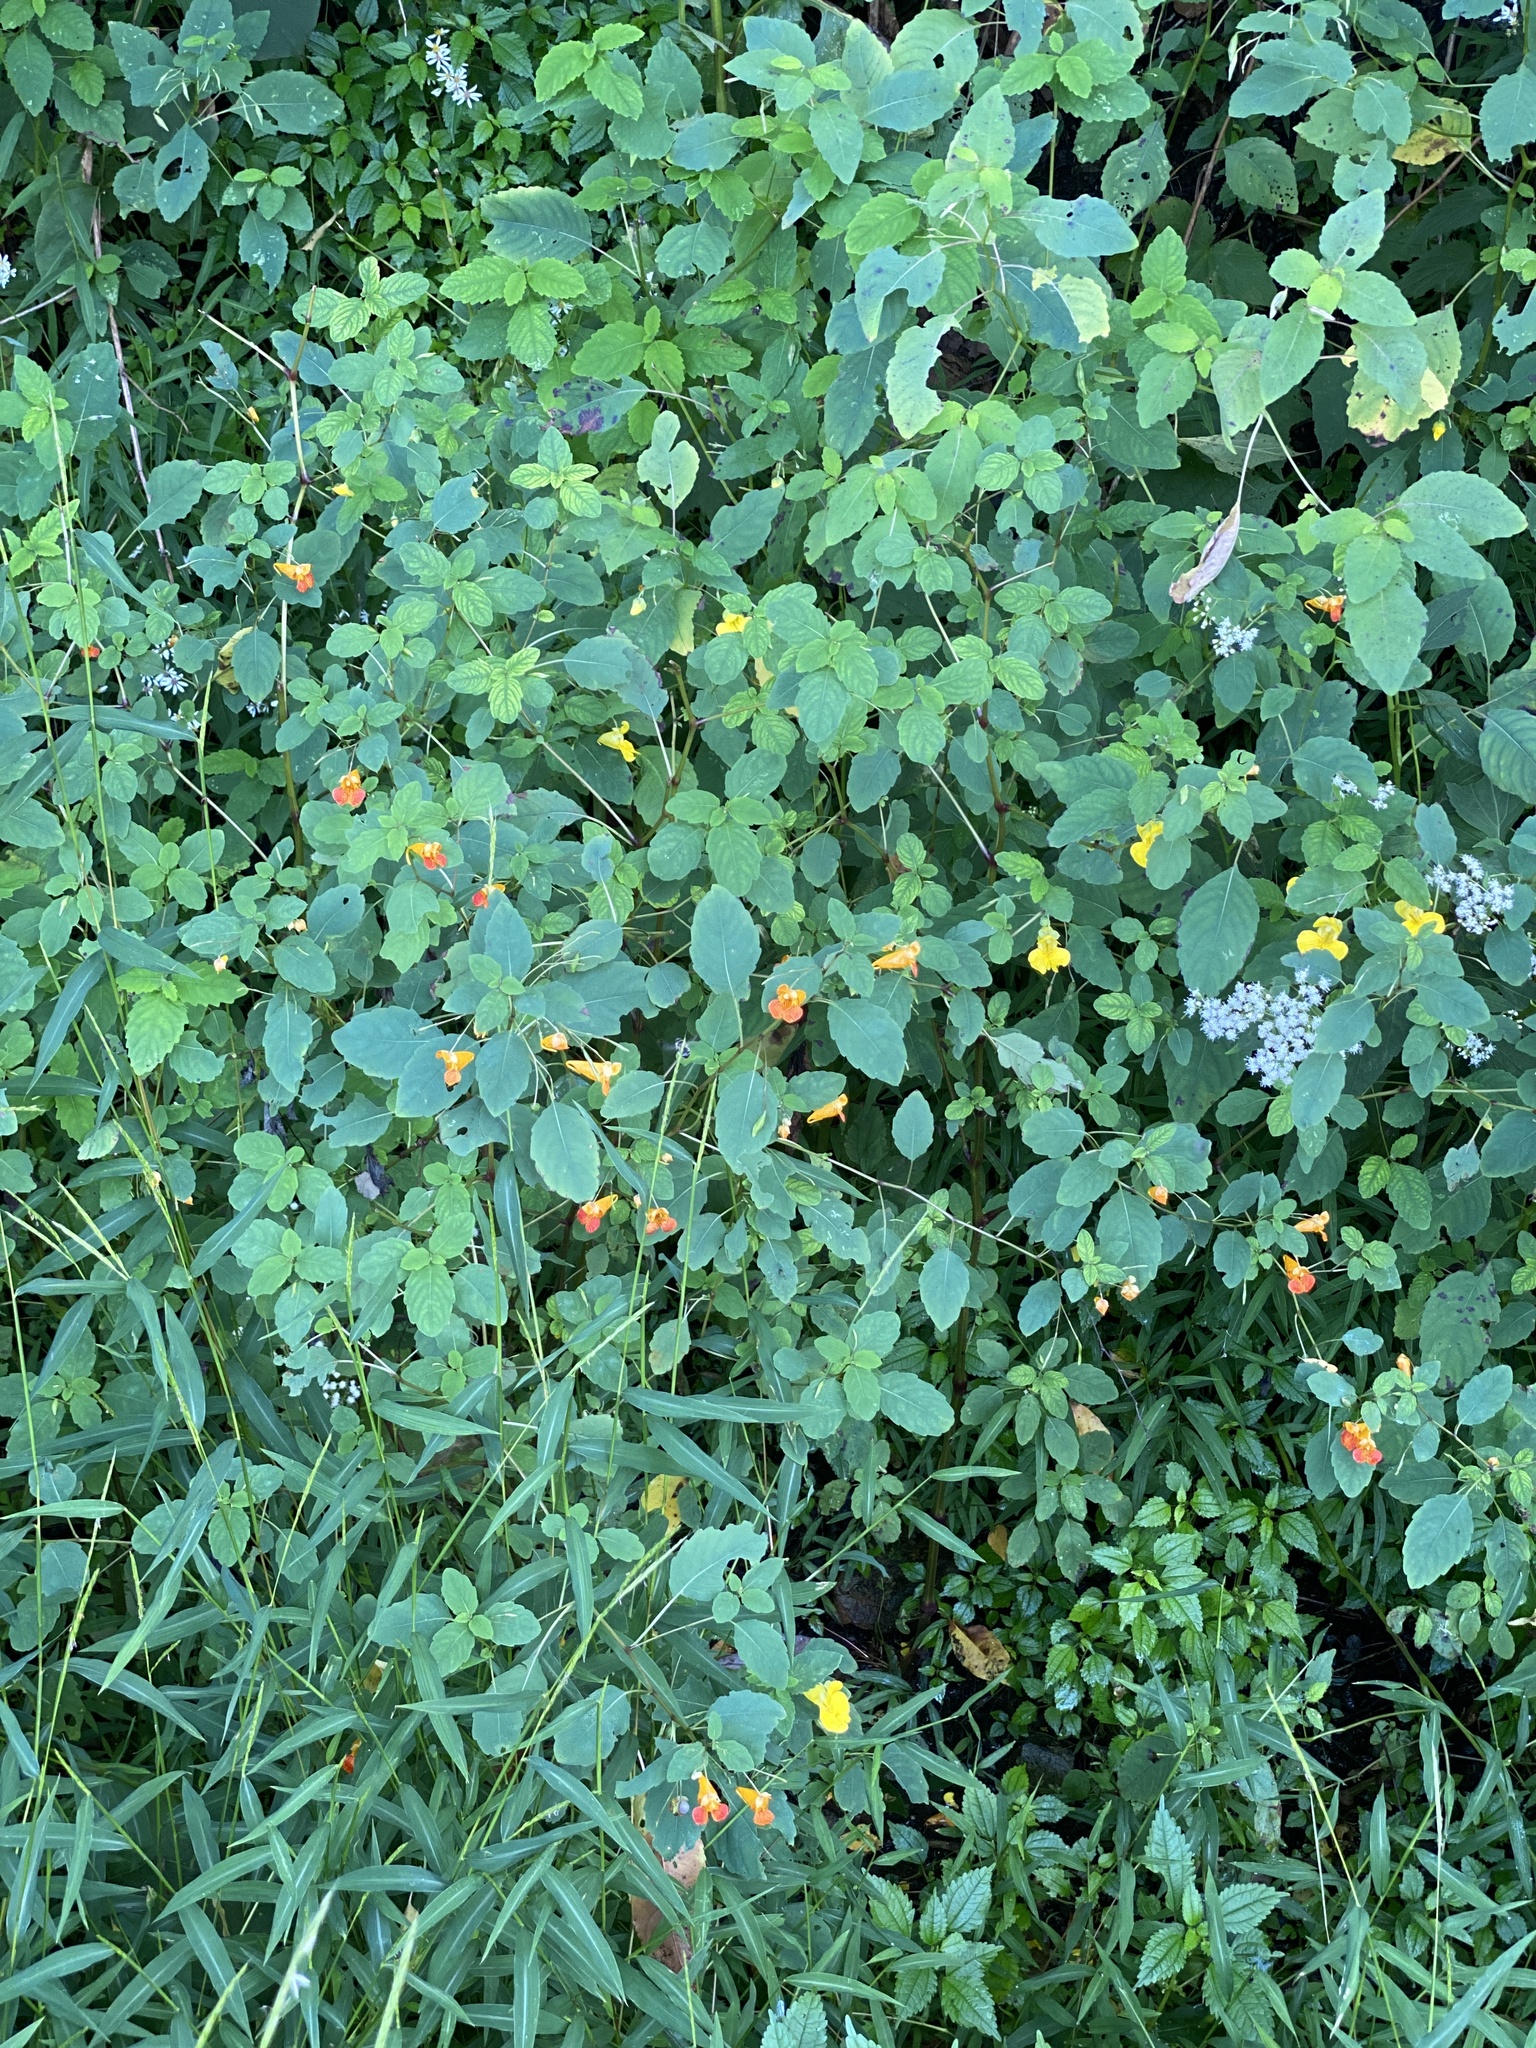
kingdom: Plantae
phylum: Tracheophyta
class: Magnoliopsida
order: Ericales
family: Balsaminaceae
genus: Impatiens
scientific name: Impatiens capensis
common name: Orange balsam
